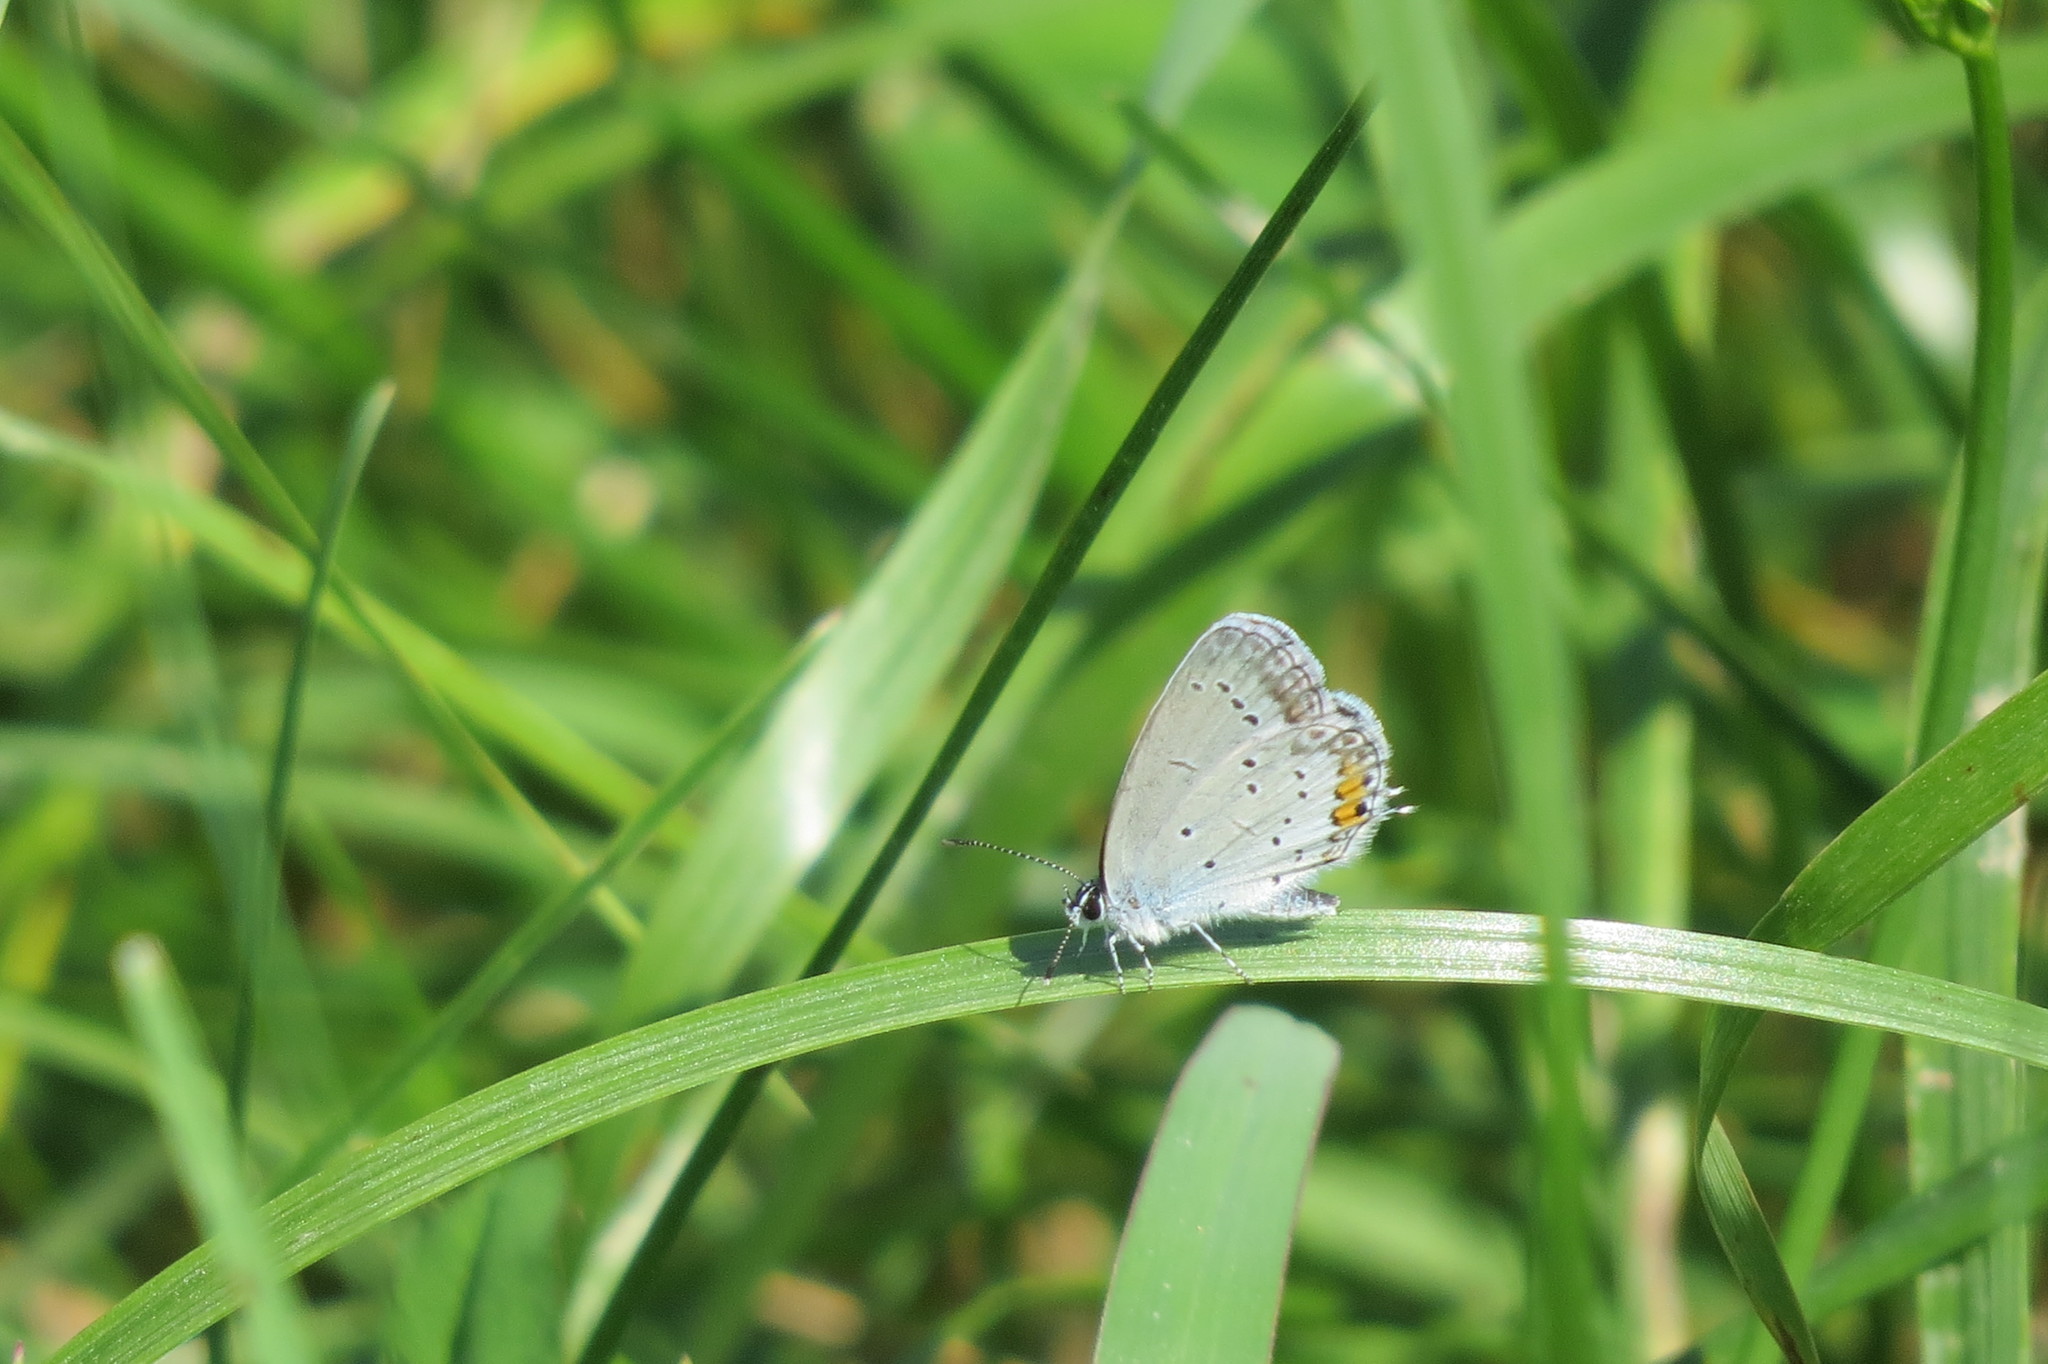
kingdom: Animalia
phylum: Arthropoda
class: Insecta
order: Lepidoptera
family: Lycaenidae
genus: Elkalyce
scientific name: Elkalyce argiades
